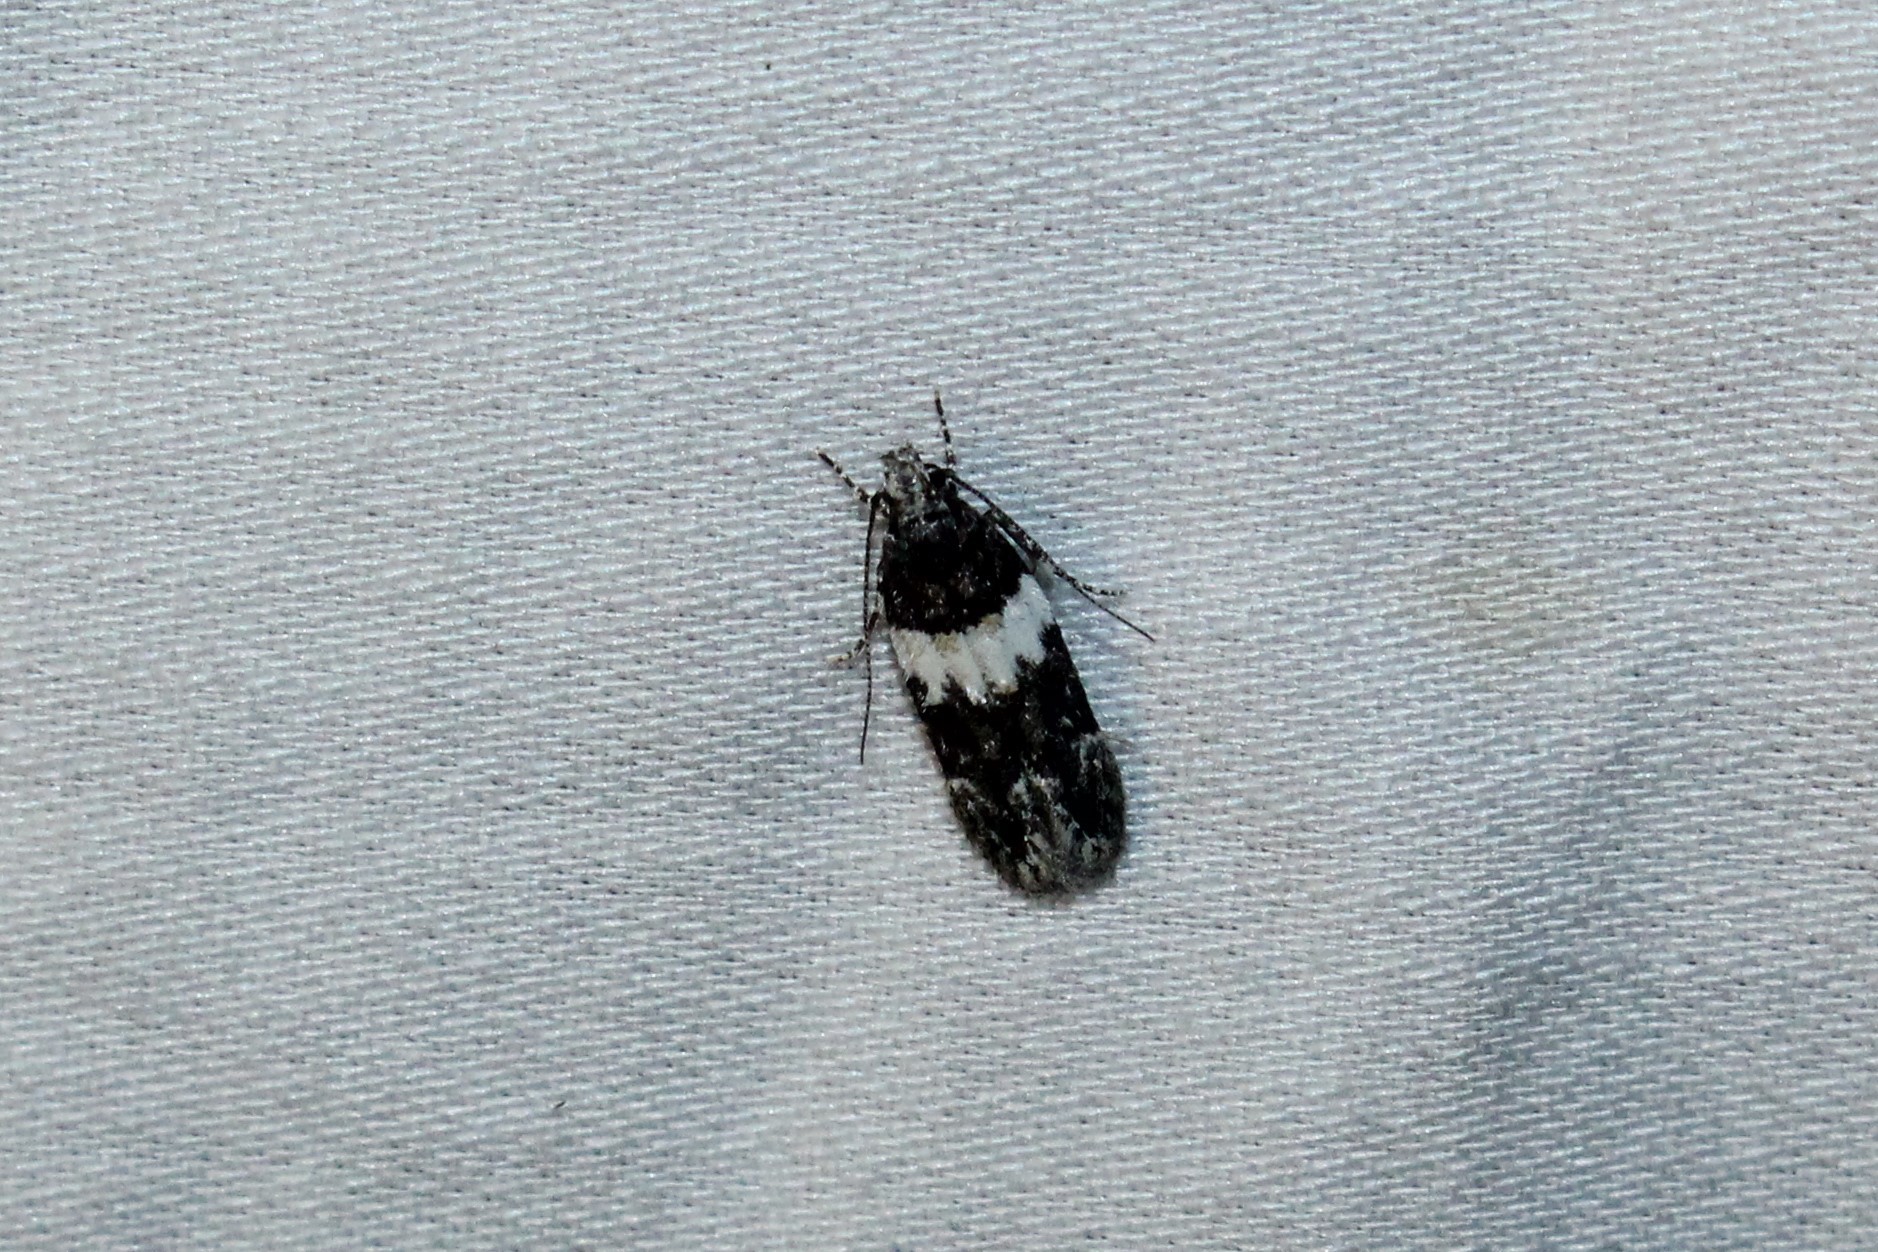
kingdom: Animalia
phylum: Arthropoda
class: Insecta
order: Lepidoptera
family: Gelechiidae
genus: Pubitelphusa
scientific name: Pubitelphusa latifasciella
